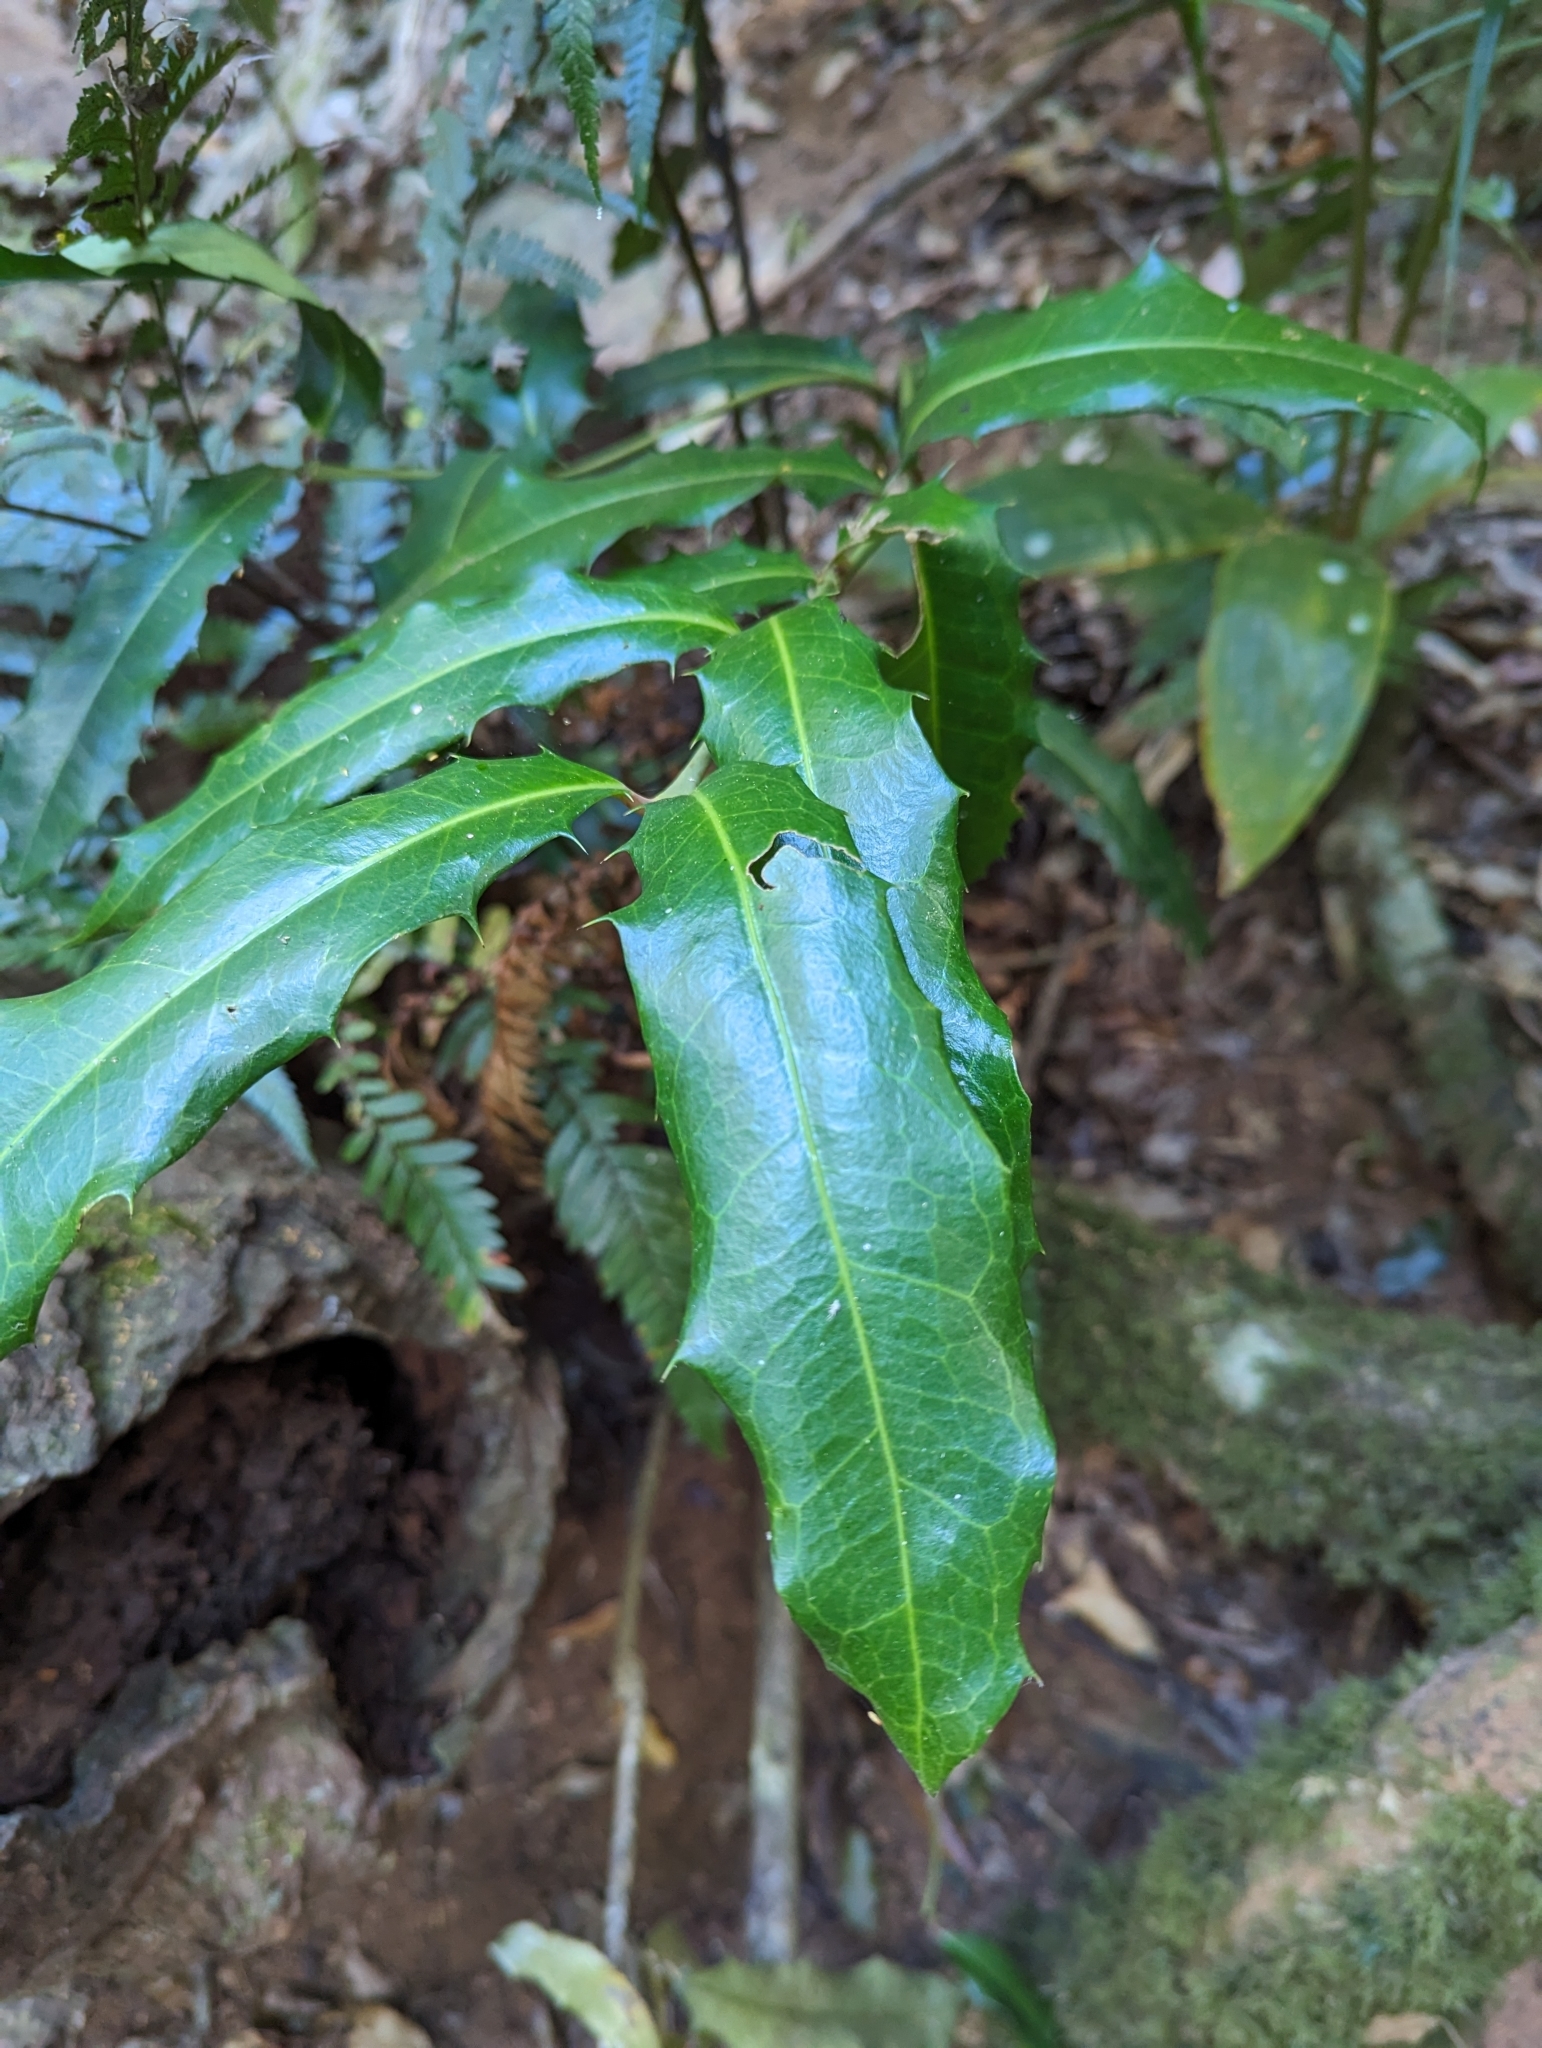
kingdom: Plantae
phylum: Tracheophyta
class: Magnoliopsida
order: Laurales
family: Monimiaceae
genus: Wilkiea
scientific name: Wilkiea macrophylla
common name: Large-leaved wilkiea
